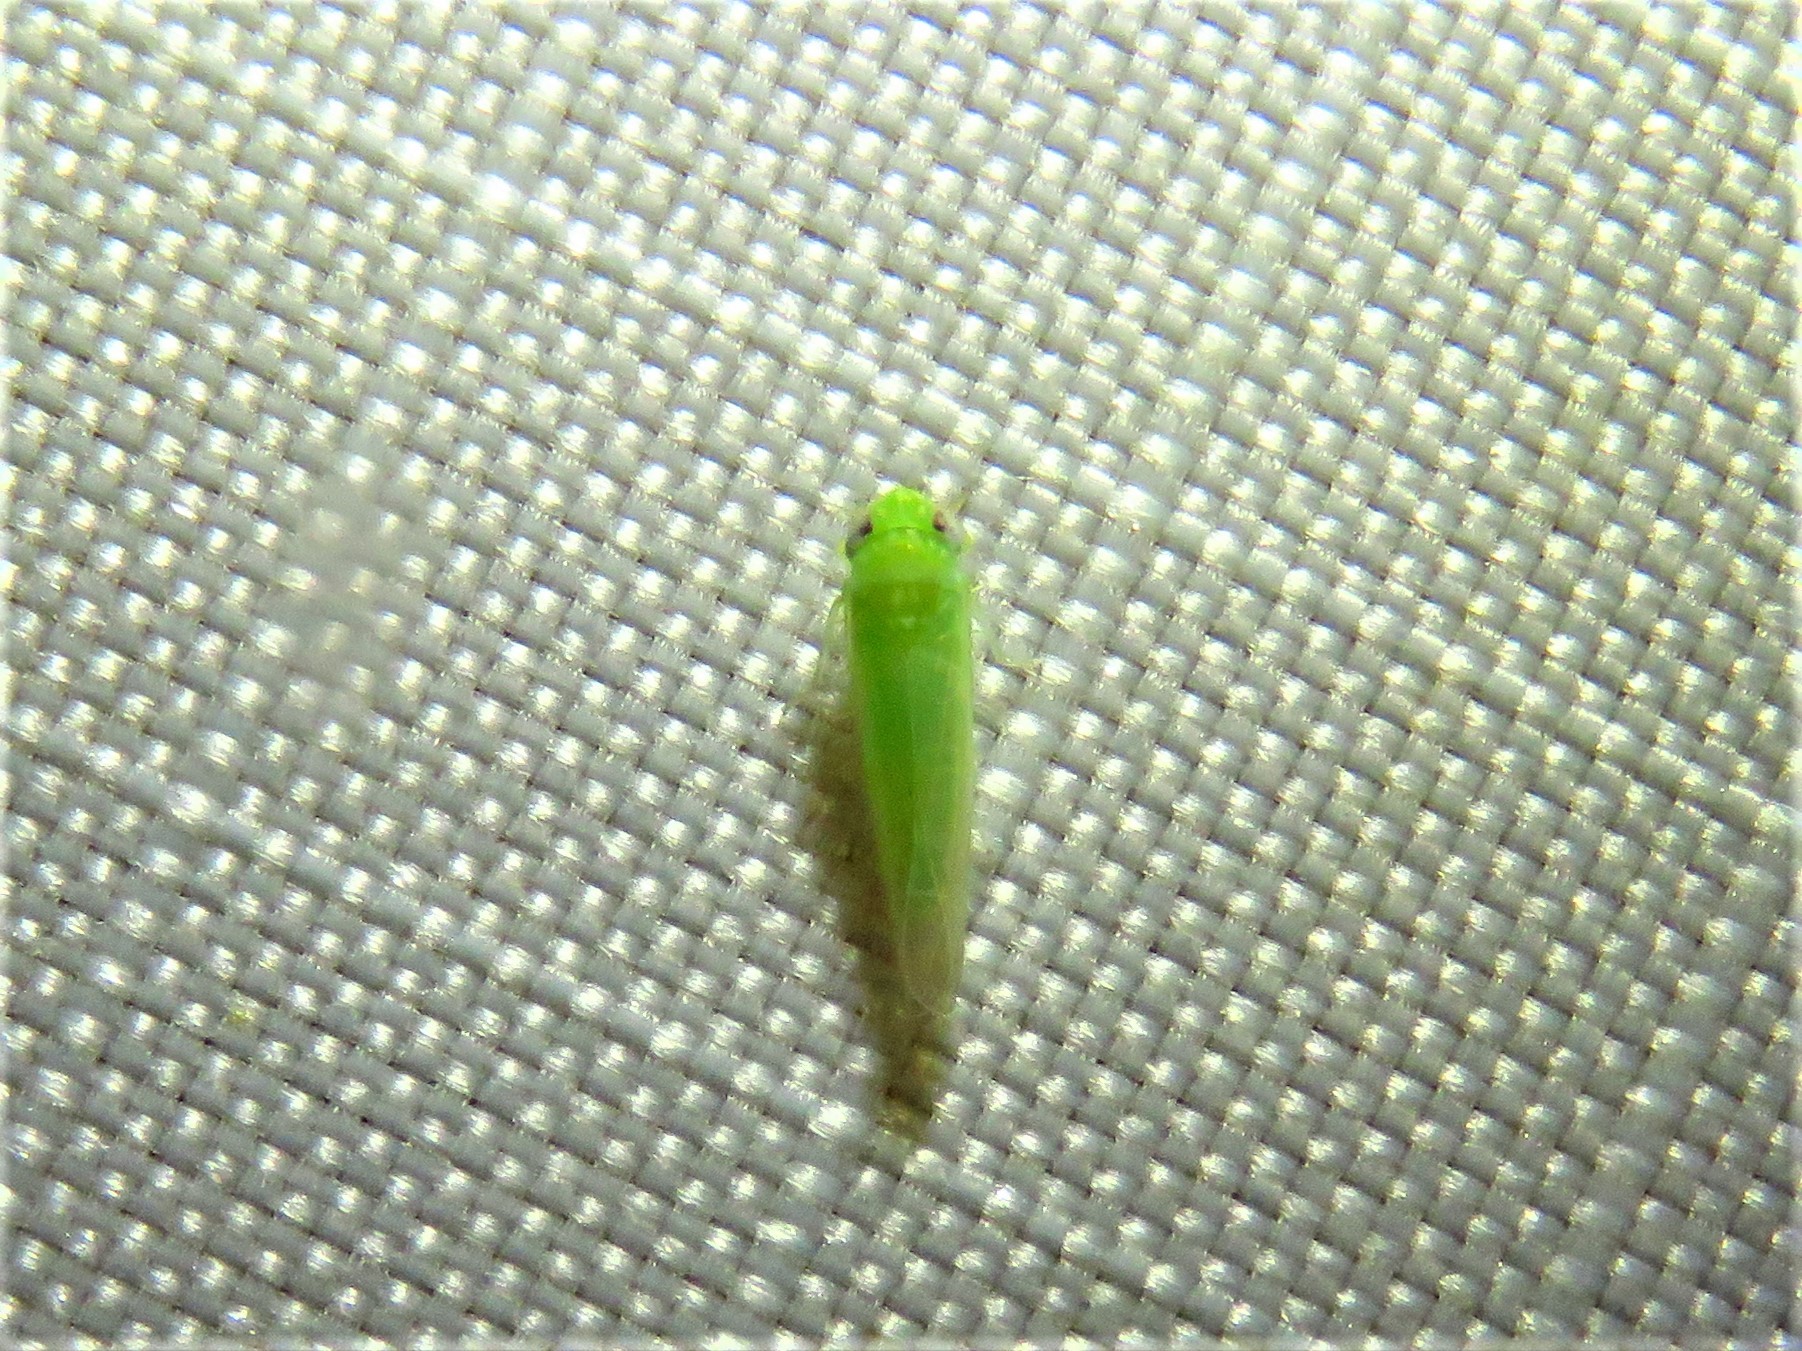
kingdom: Animalia
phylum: Arthropoda
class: Insecta
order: Hemiptera
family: Cicadellidae
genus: Empoasca
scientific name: Empoasca fabae
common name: Potato leafhopper
